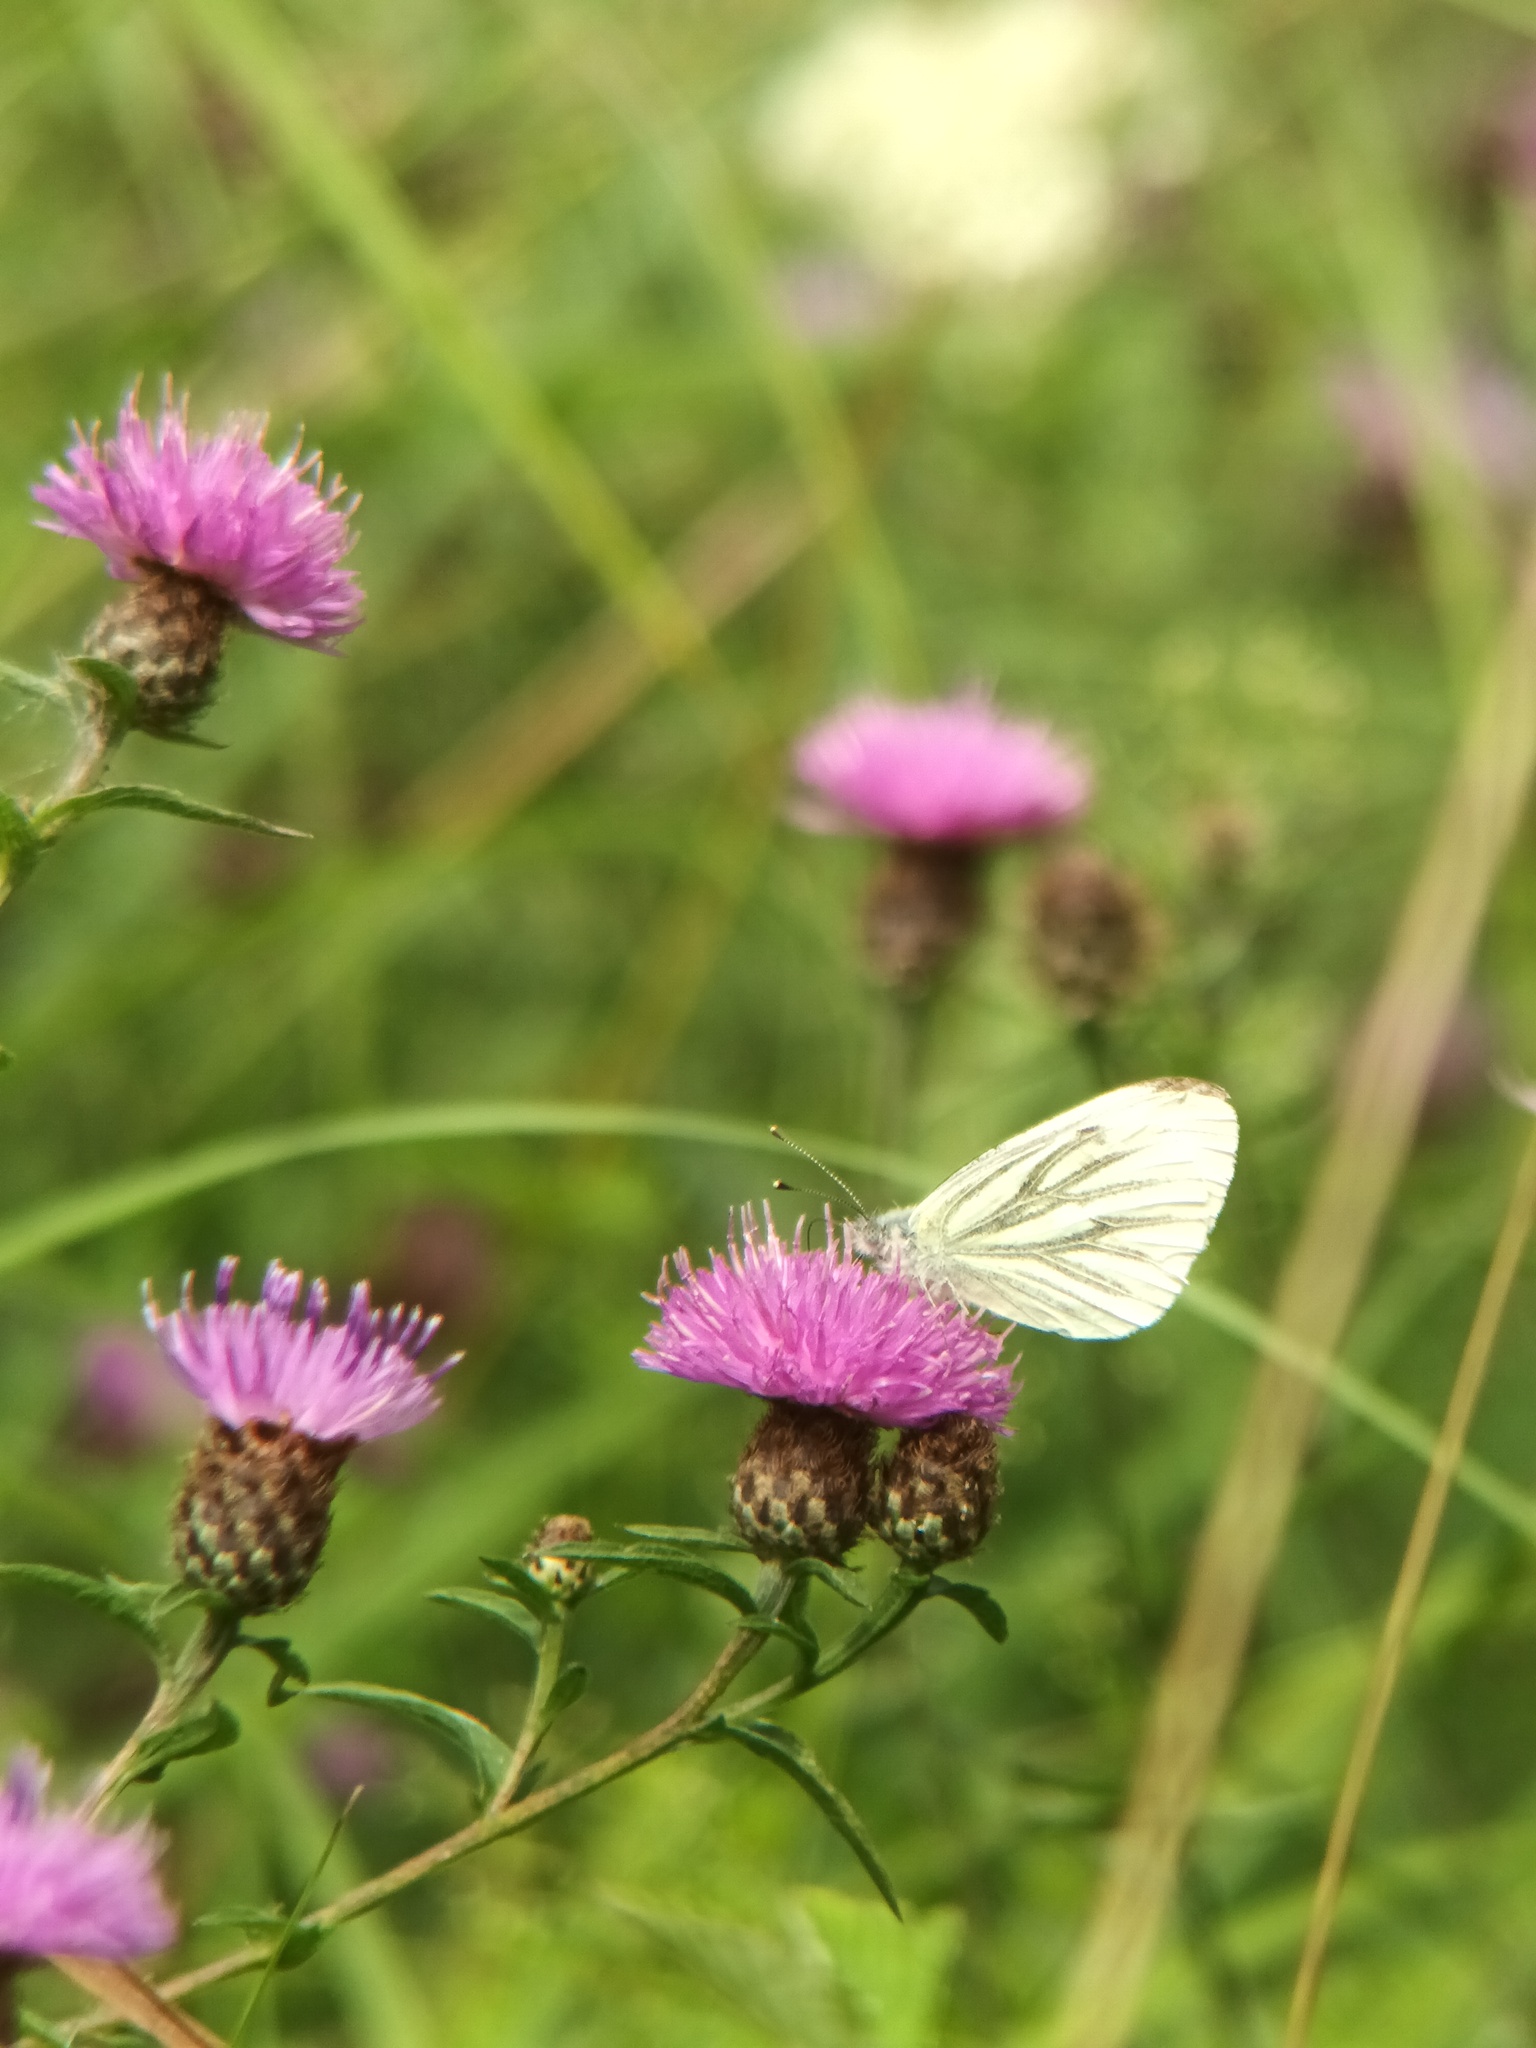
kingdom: Animalia
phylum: Arthropoda
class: Insecta
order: Lepidoptera
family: Pieridae
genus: Pieris
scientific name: Pieris napi
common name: Green-veined white
